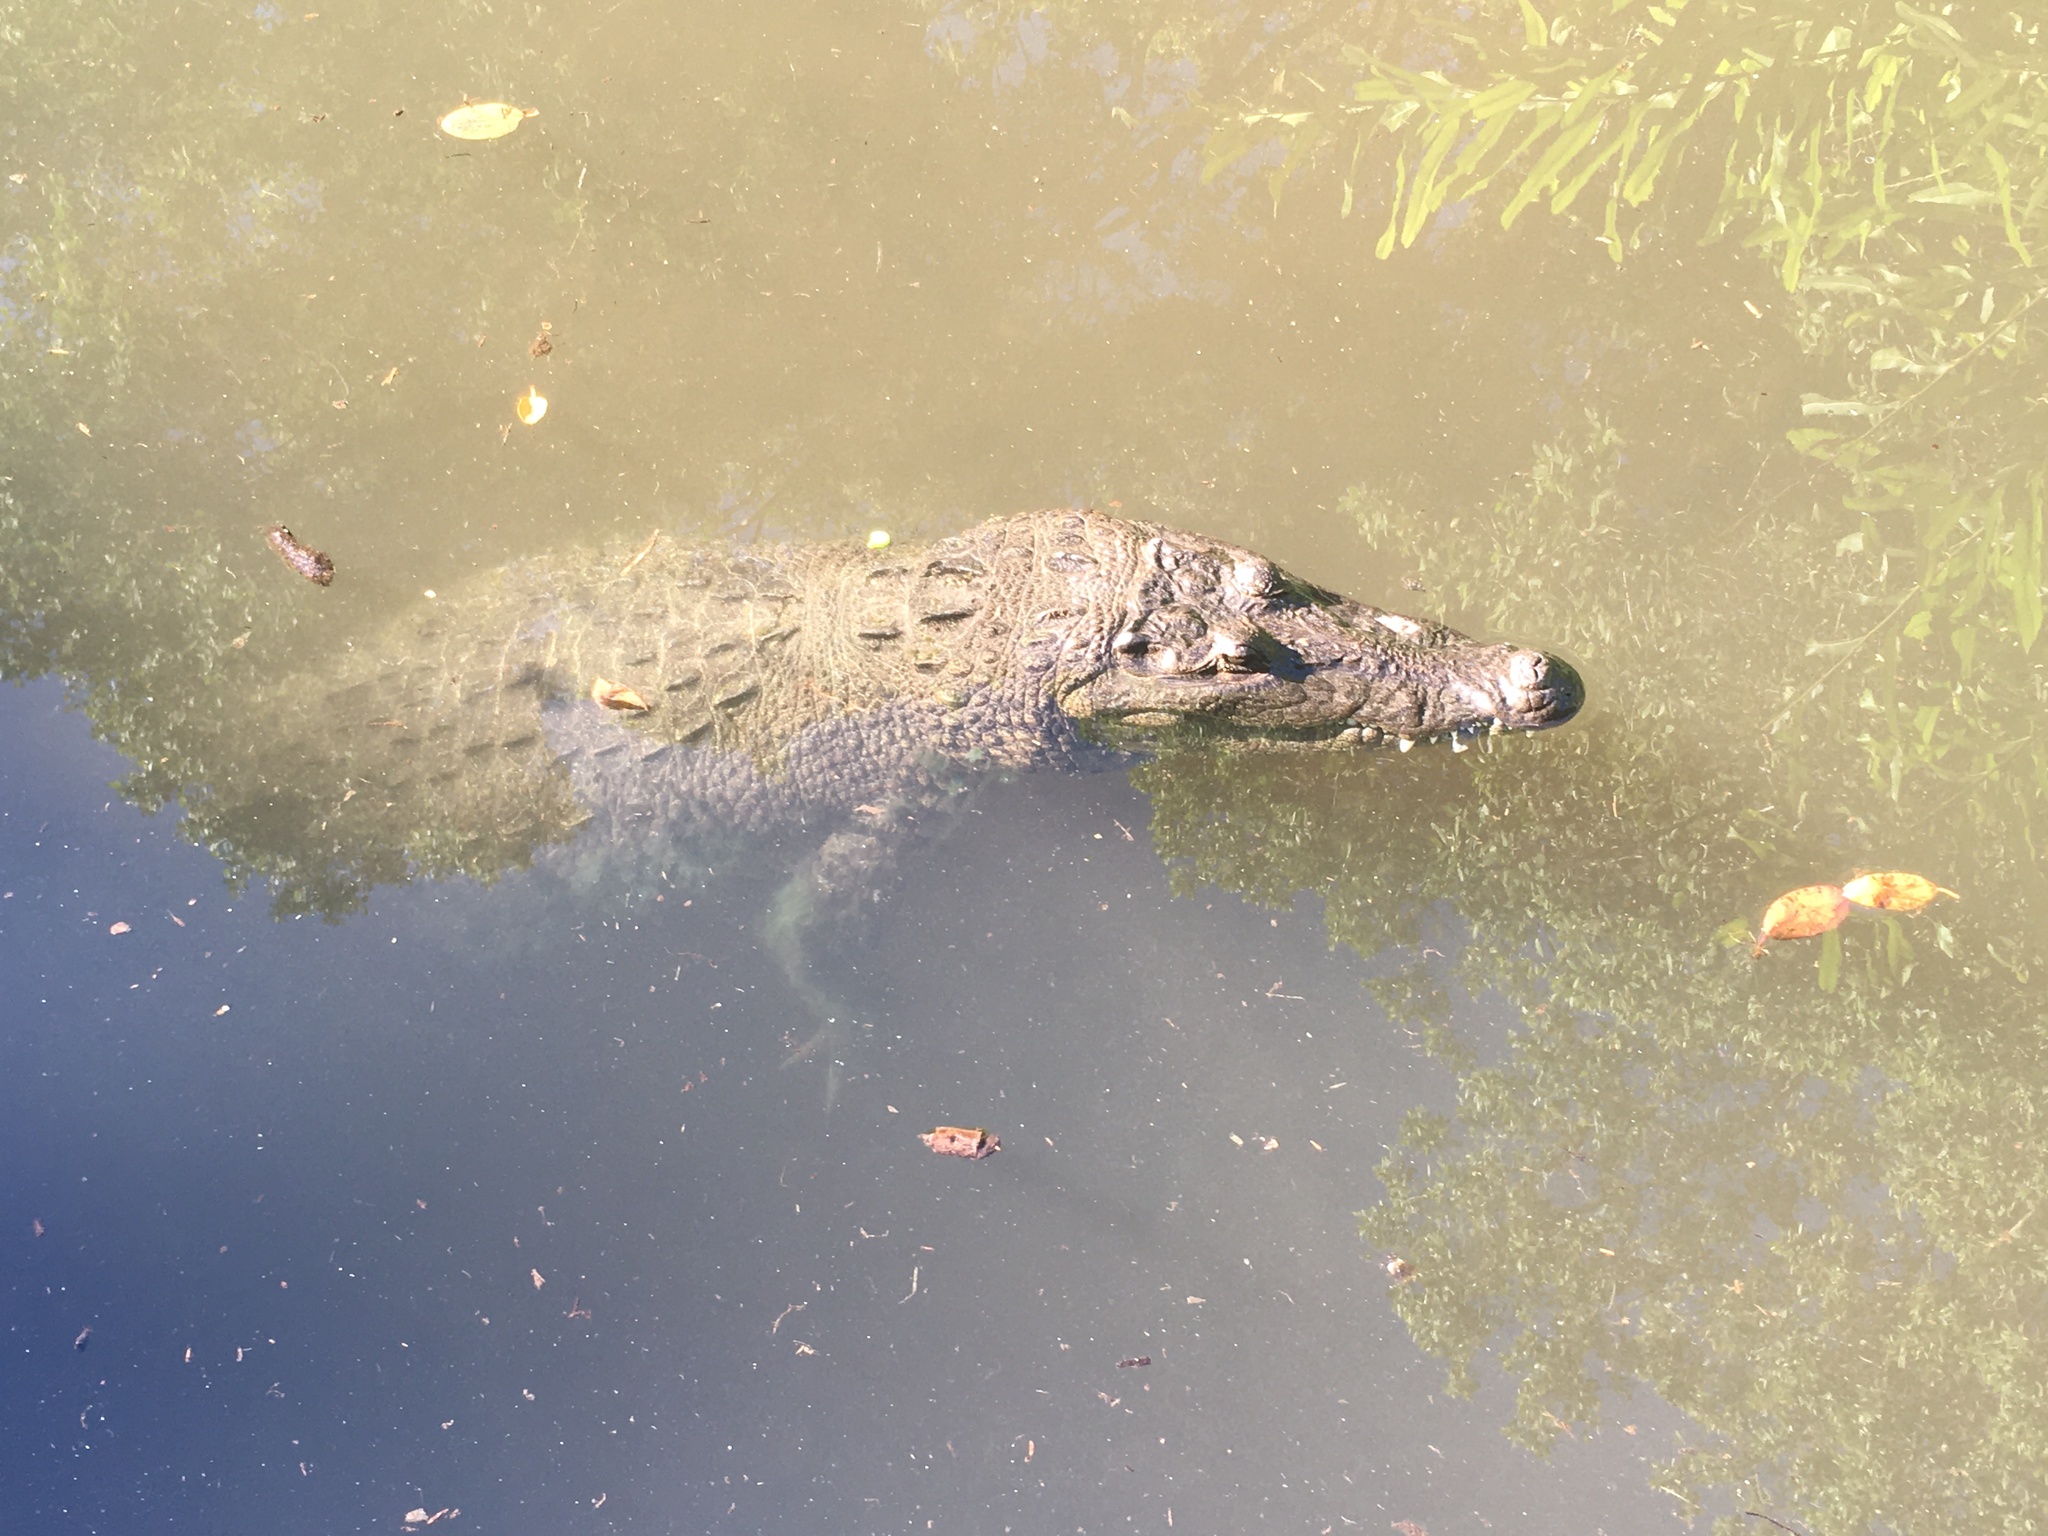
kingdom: Animalia
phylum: Chordata
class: Crocodylia
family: Crocodylidae
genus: Crocodylus
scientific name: Crocodylus moreletii
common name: Morelet's crocodile
